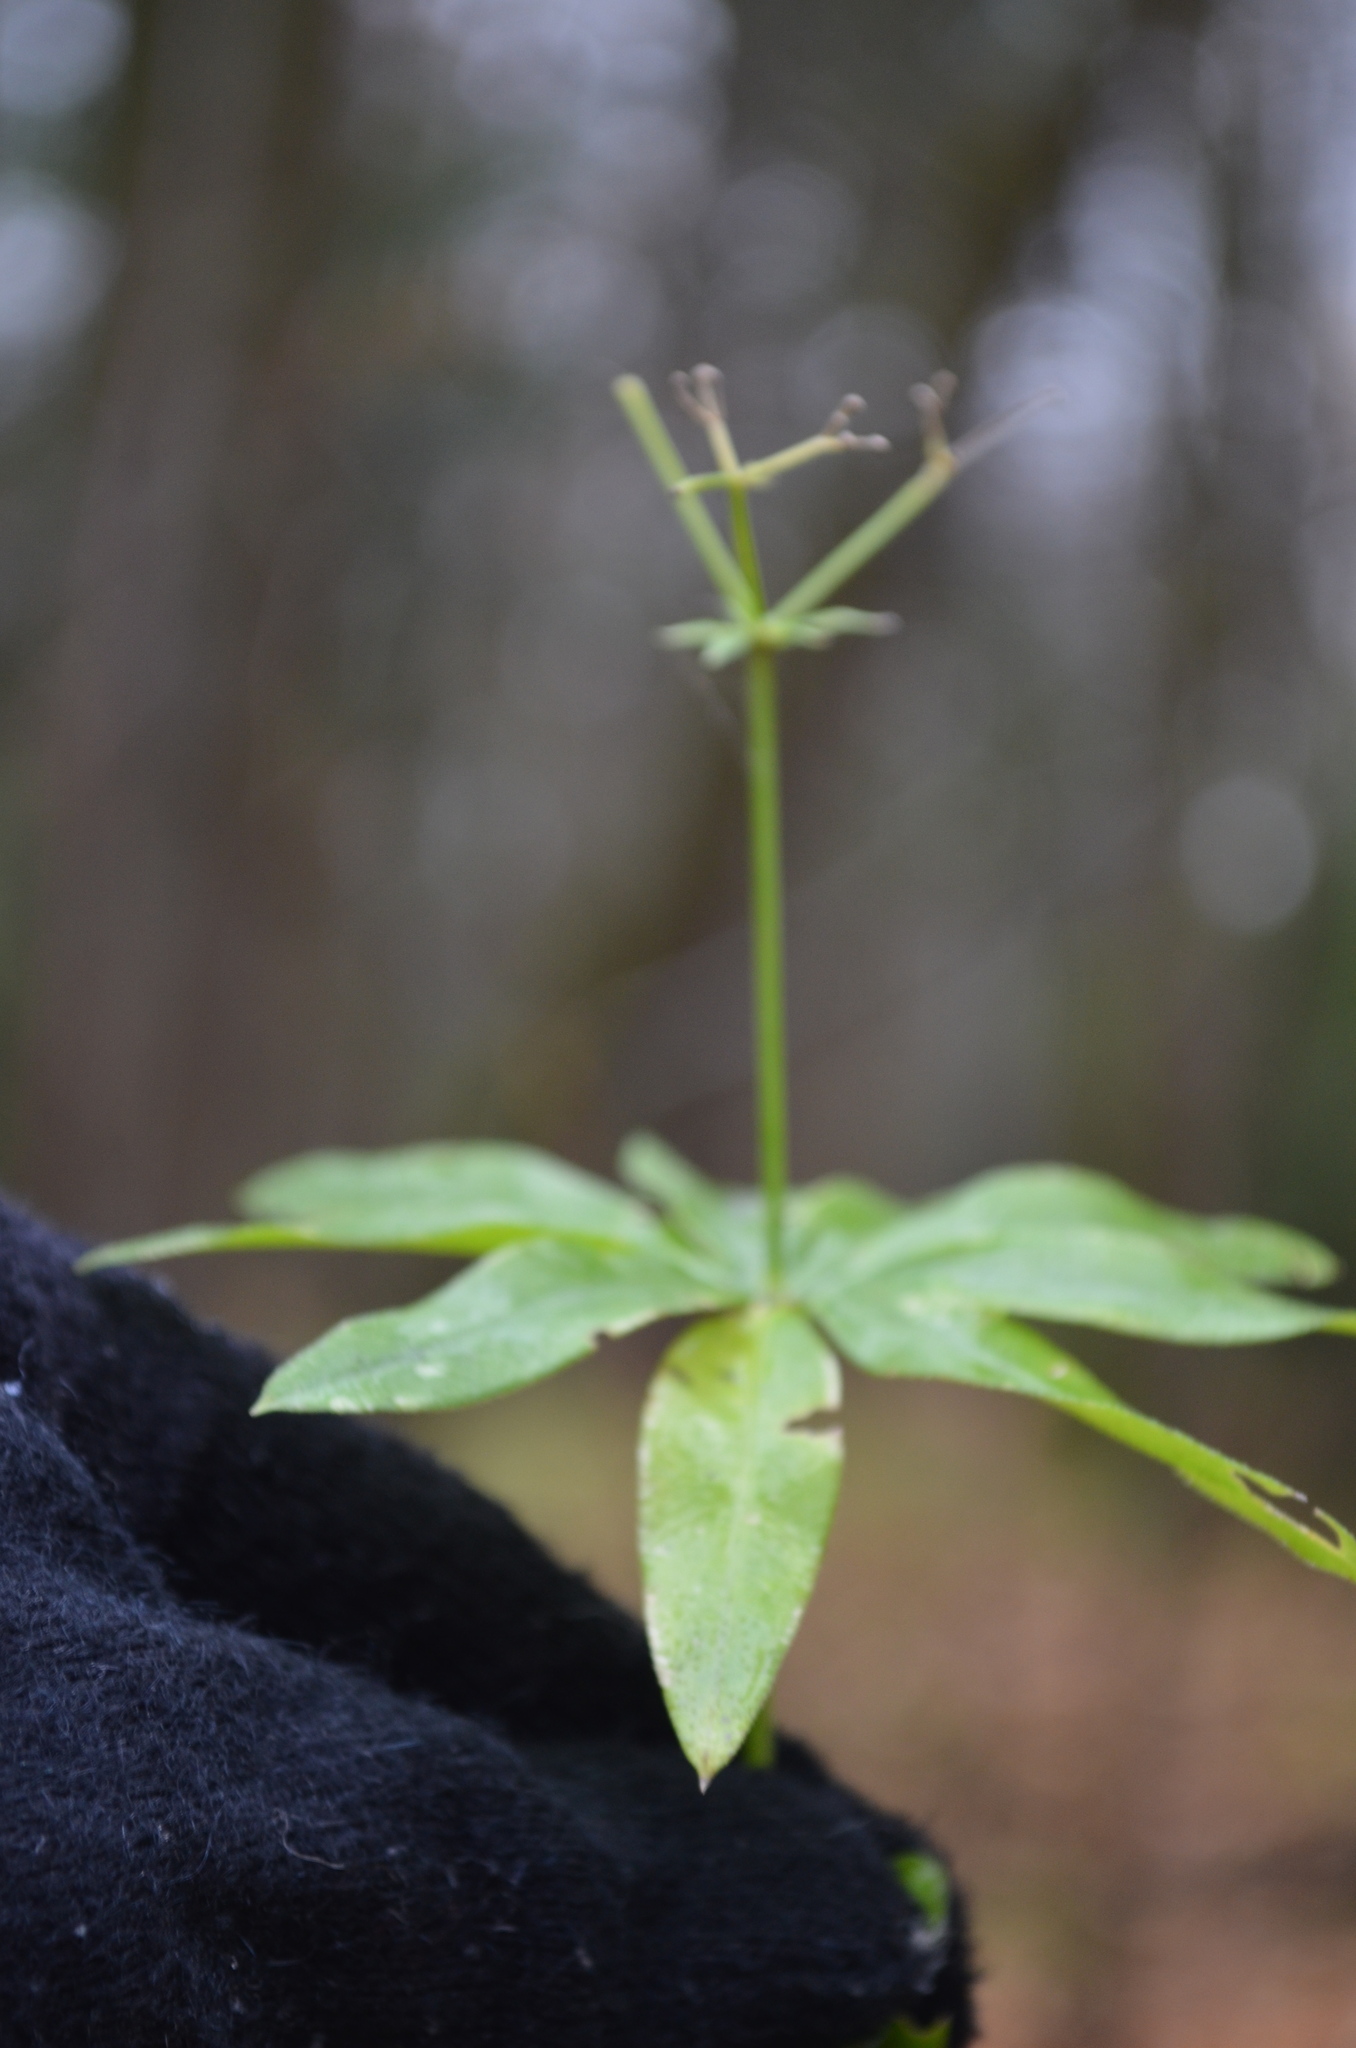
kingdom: Plantae
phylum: Tracheophyta
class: Magnoliopsida
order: Gentianales
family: Rubiaceae
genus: Galium
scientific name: Galium odoratum
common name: Sweet woodruff
